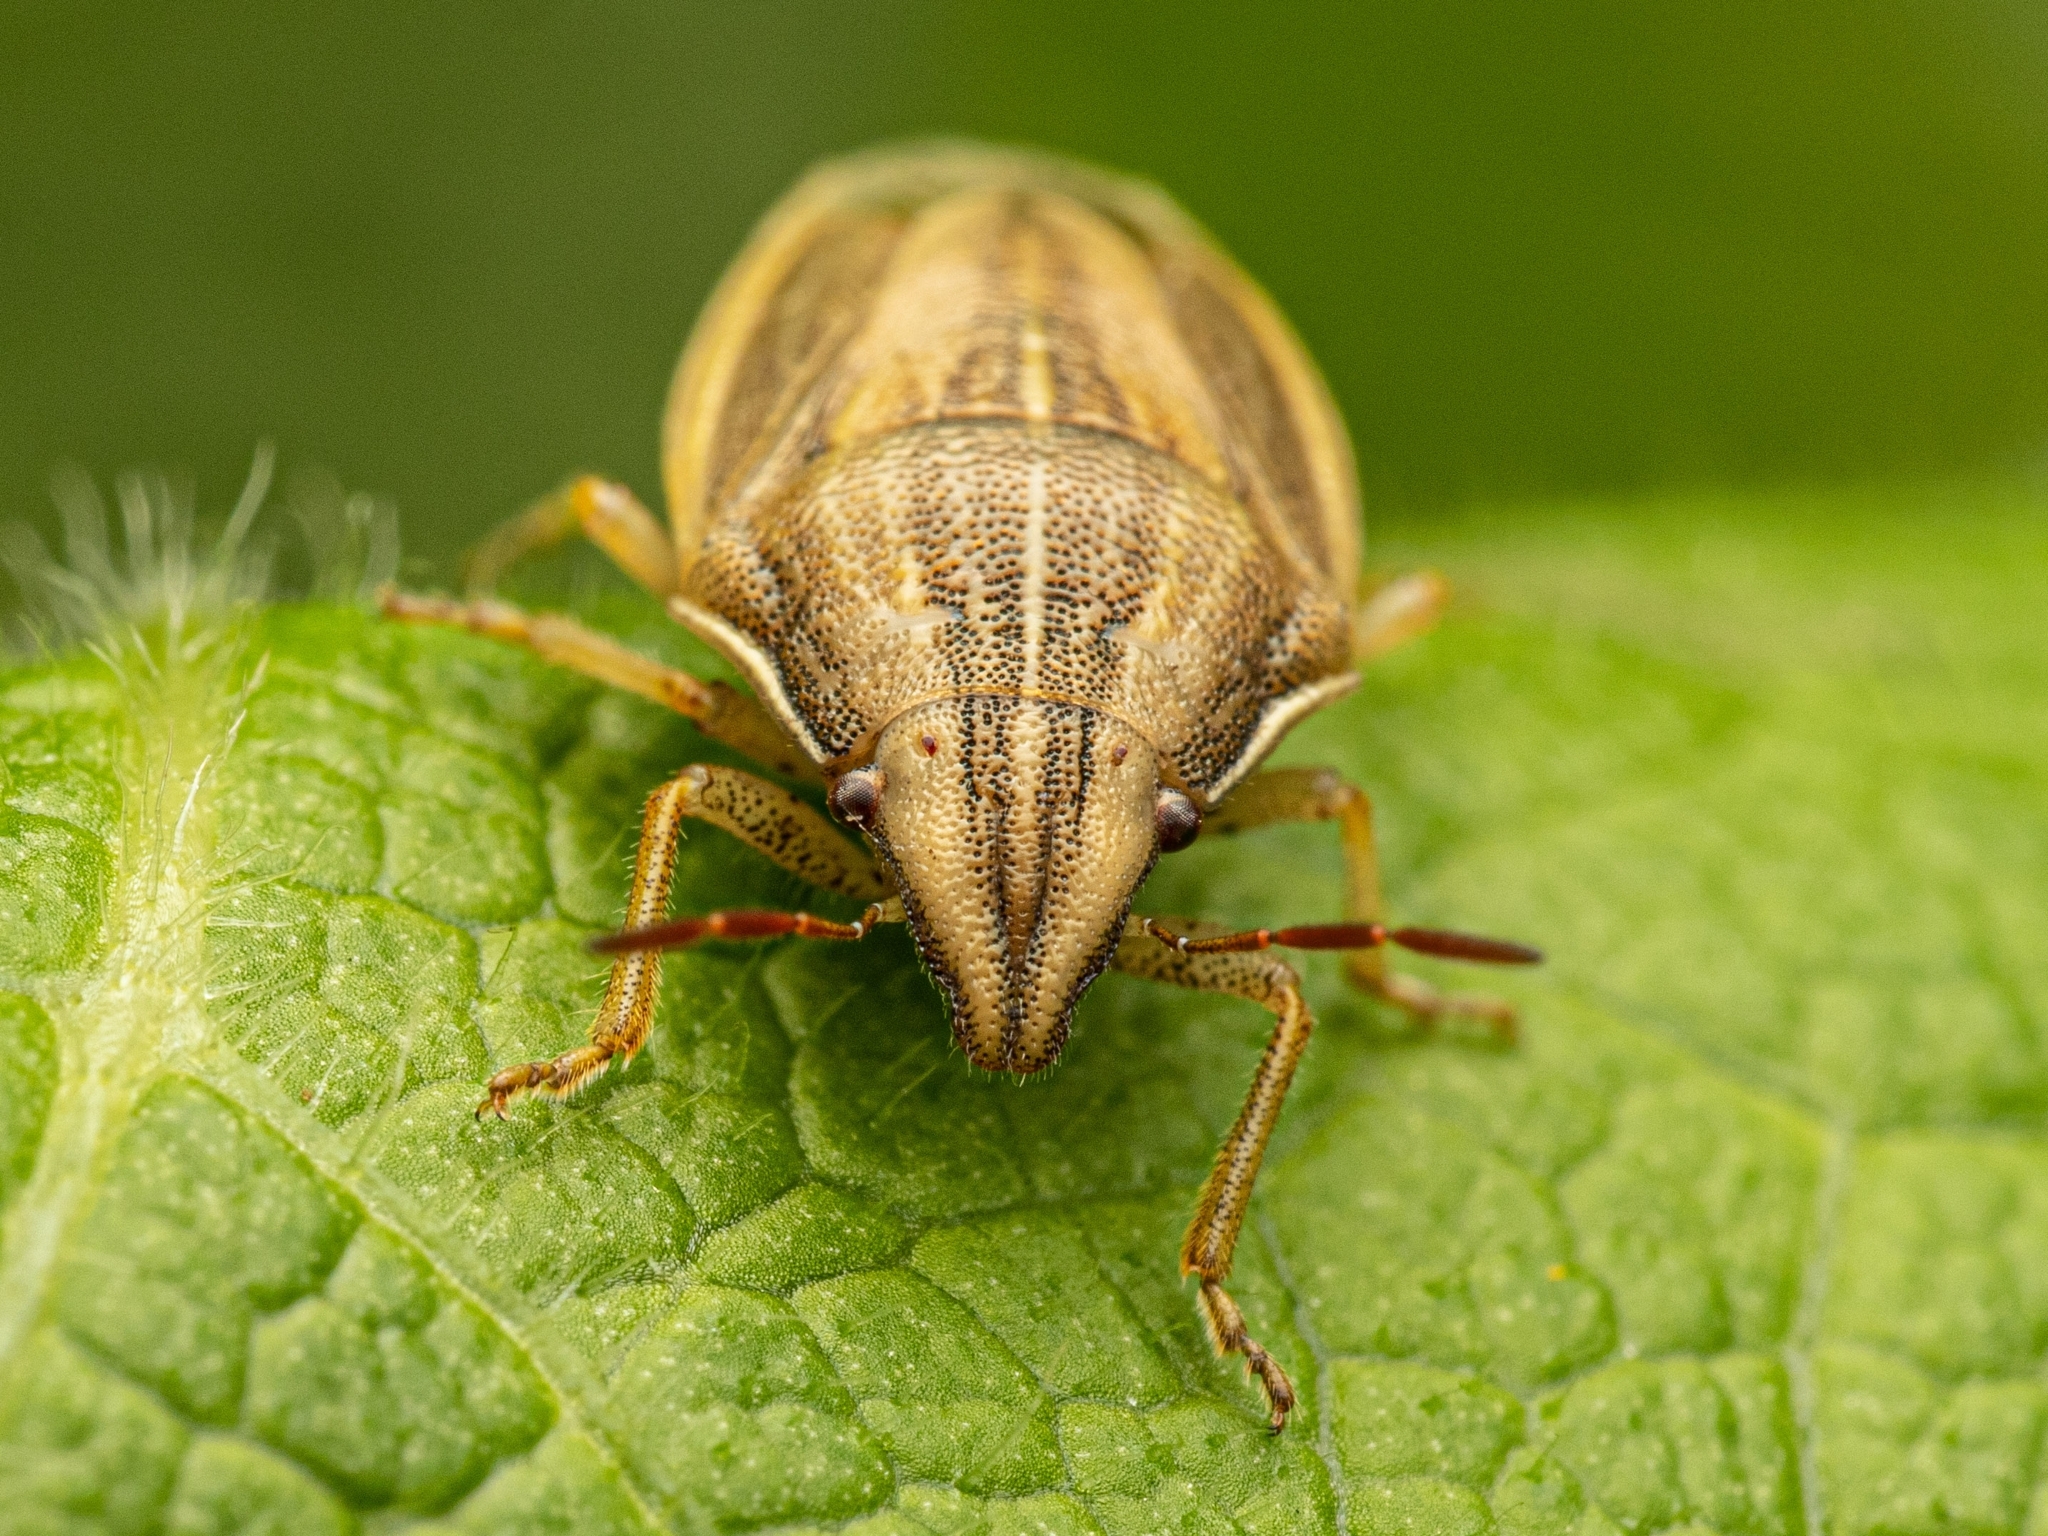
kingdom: Animalia
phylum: Arthropoda
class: Insecta
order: Hemiptera
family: Pentatomidae
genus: Aelia
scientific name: Aelia acuminata
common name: Bishop's mitre
